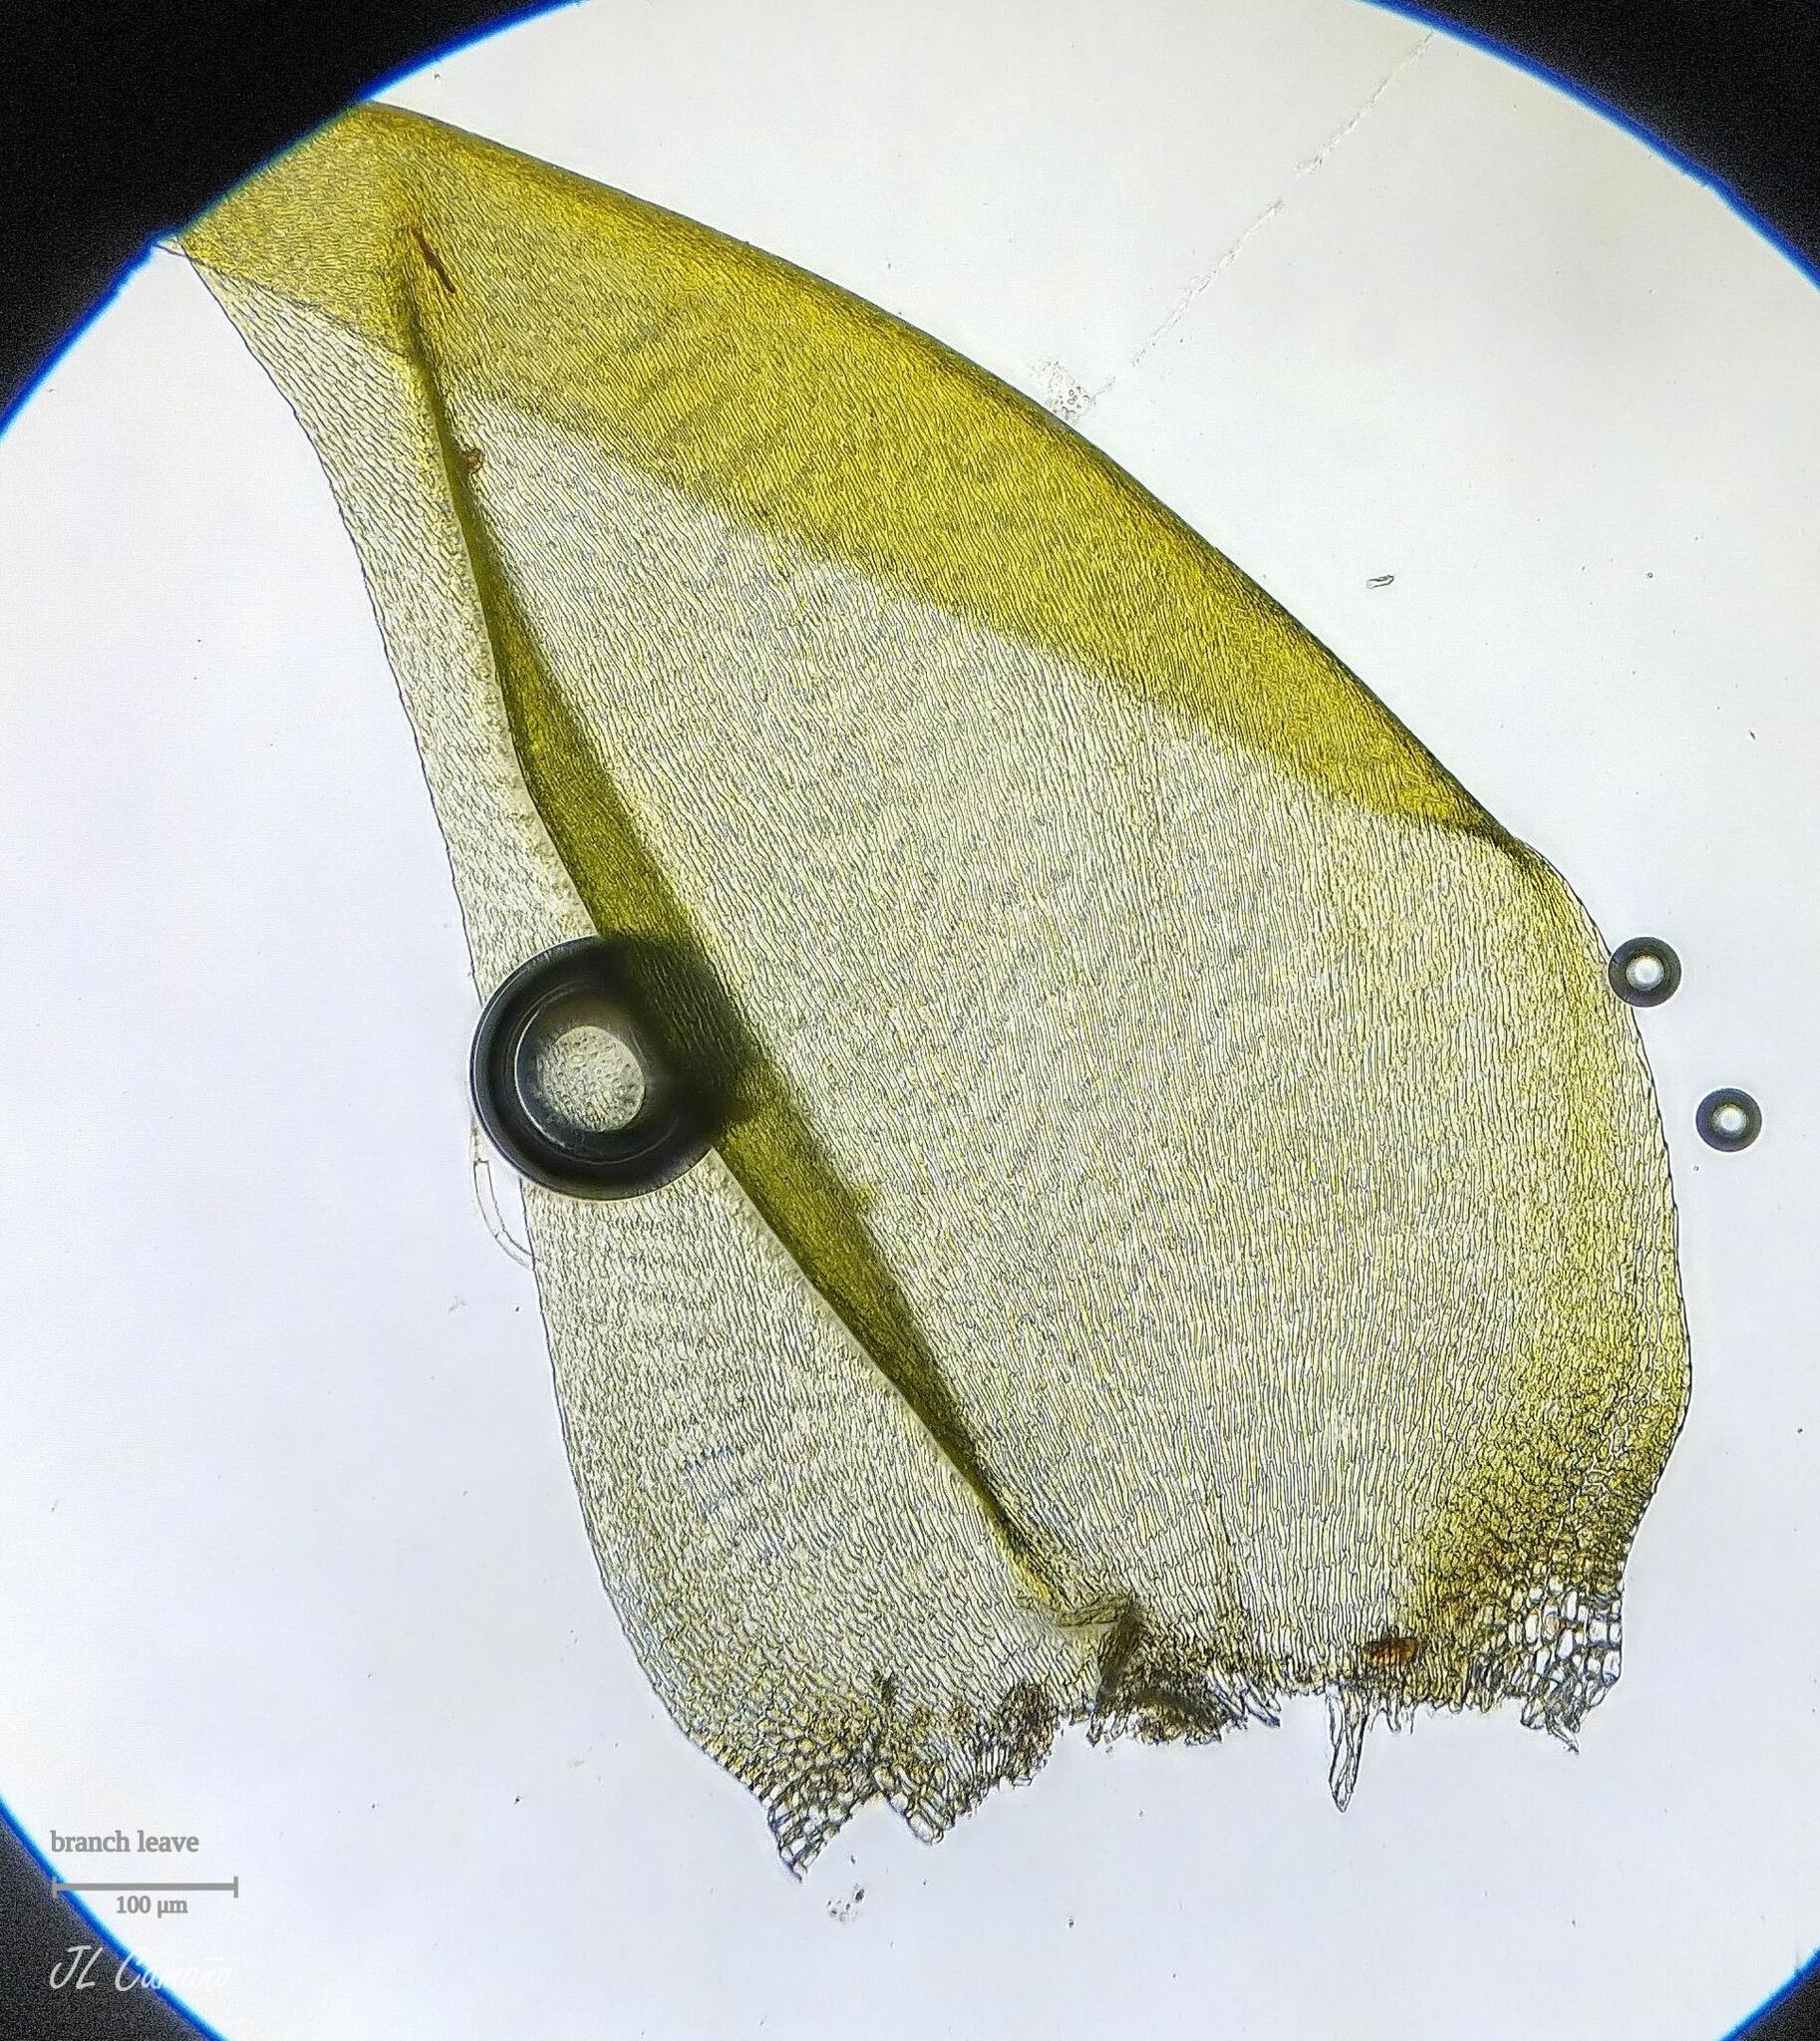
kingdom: Plantae
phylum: Bryophyta
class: Bryopsida
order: Hypnales
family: Hypnaceae
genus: Hypnum
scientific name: Hypnum cupressiforme
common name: Cypress-leaved plait-moss
